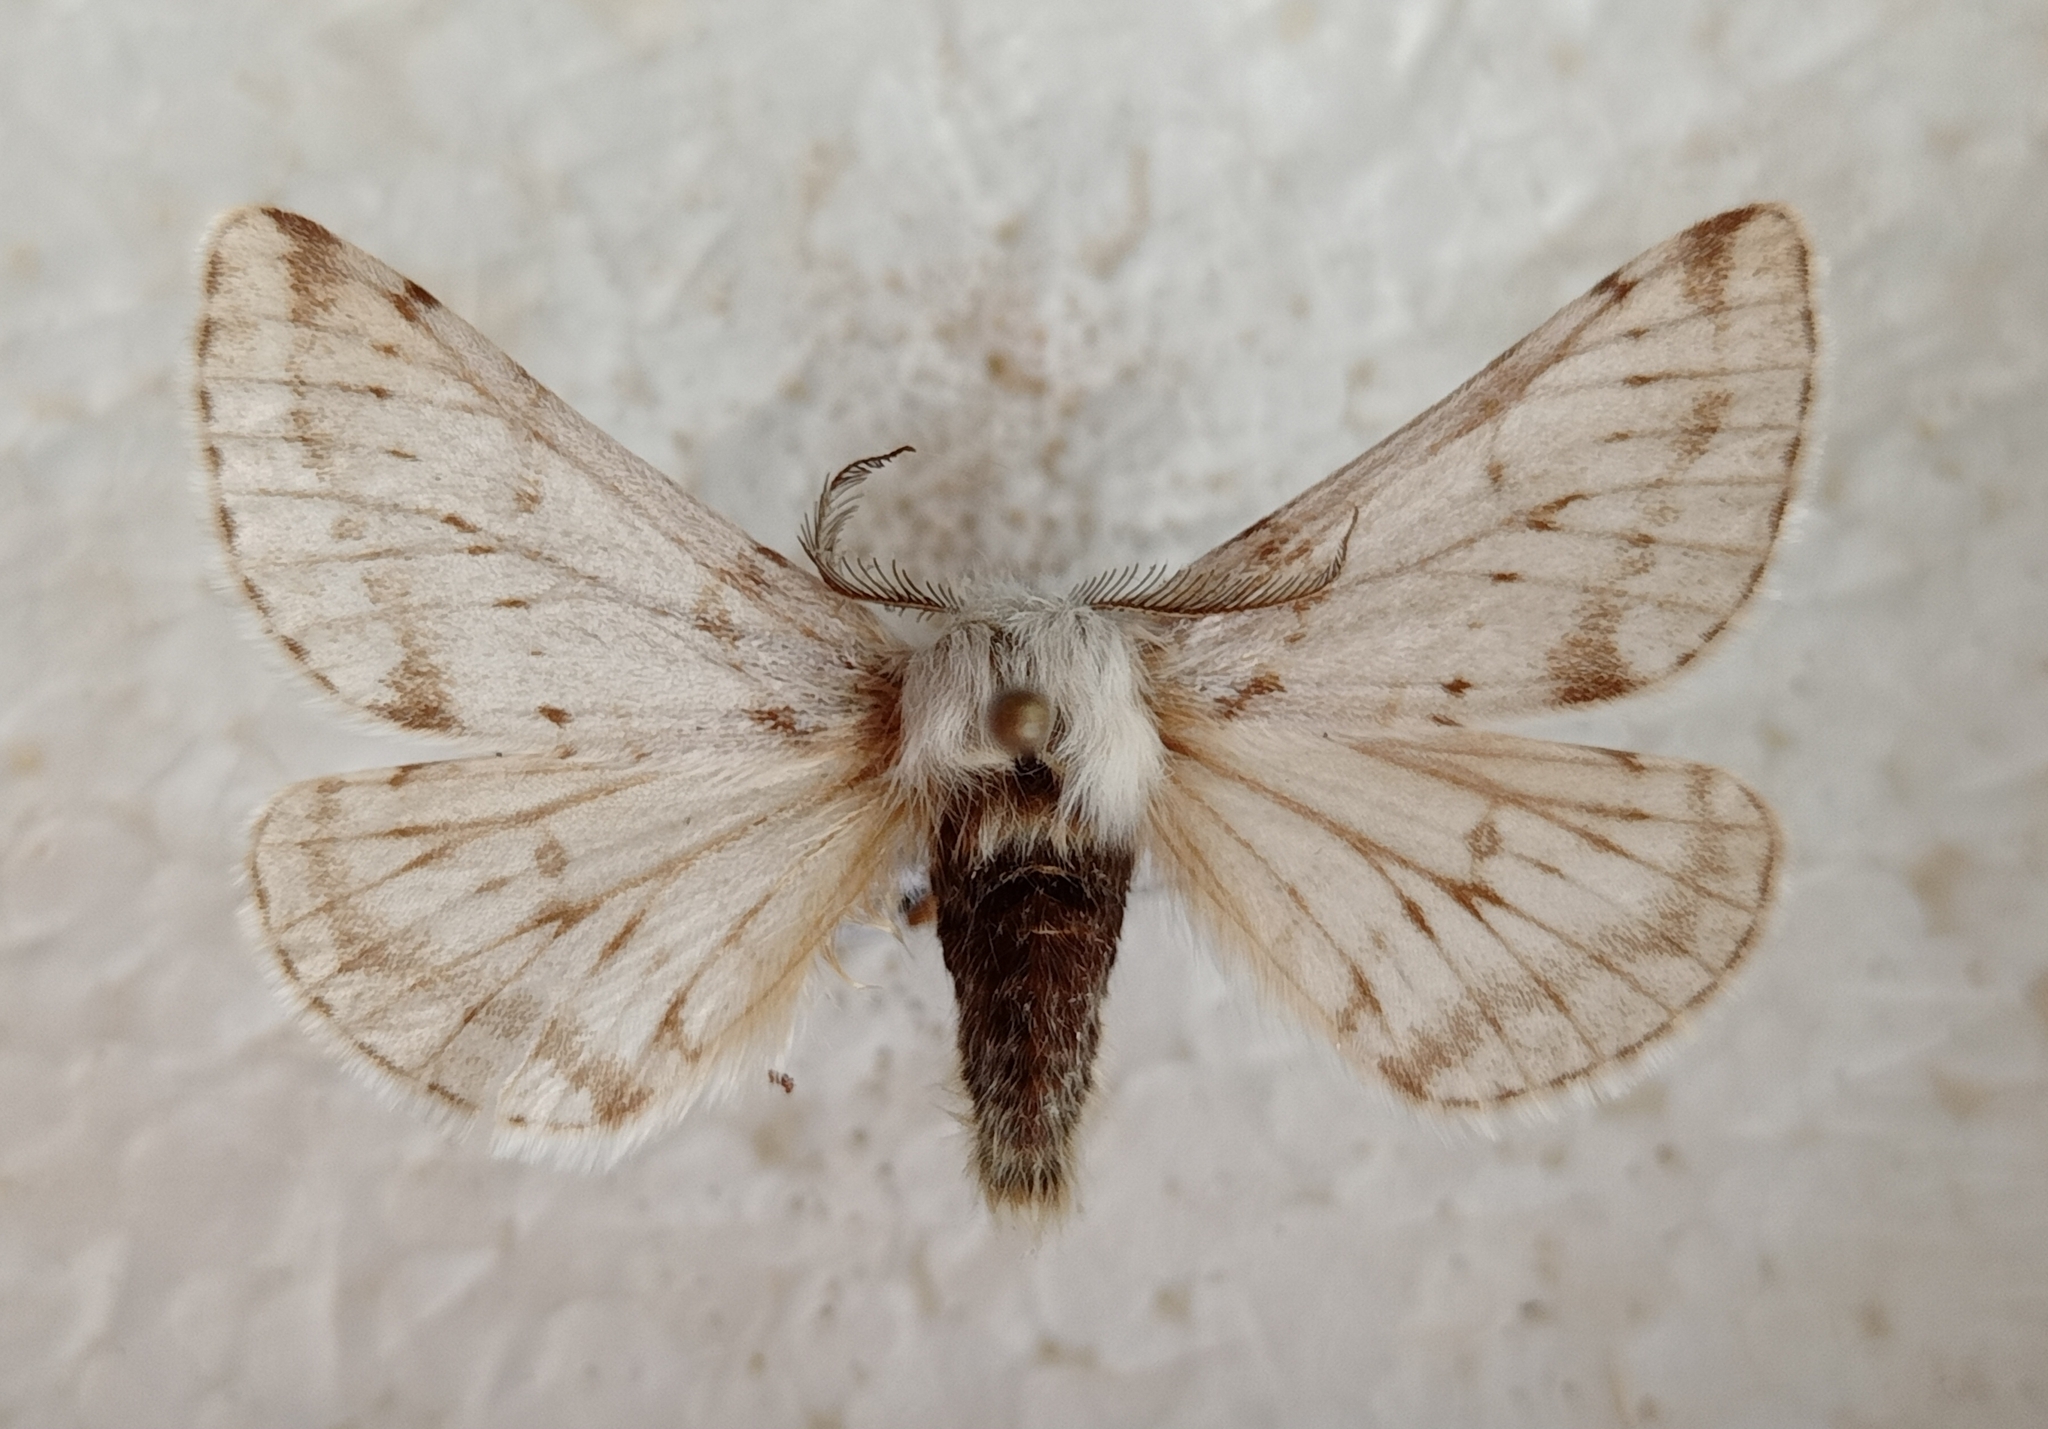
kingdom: Animalia
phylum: Arthropoda
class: Insecta
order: Lepidoptera
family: Geometridae
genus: Lycia
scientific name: Lycia alpina
